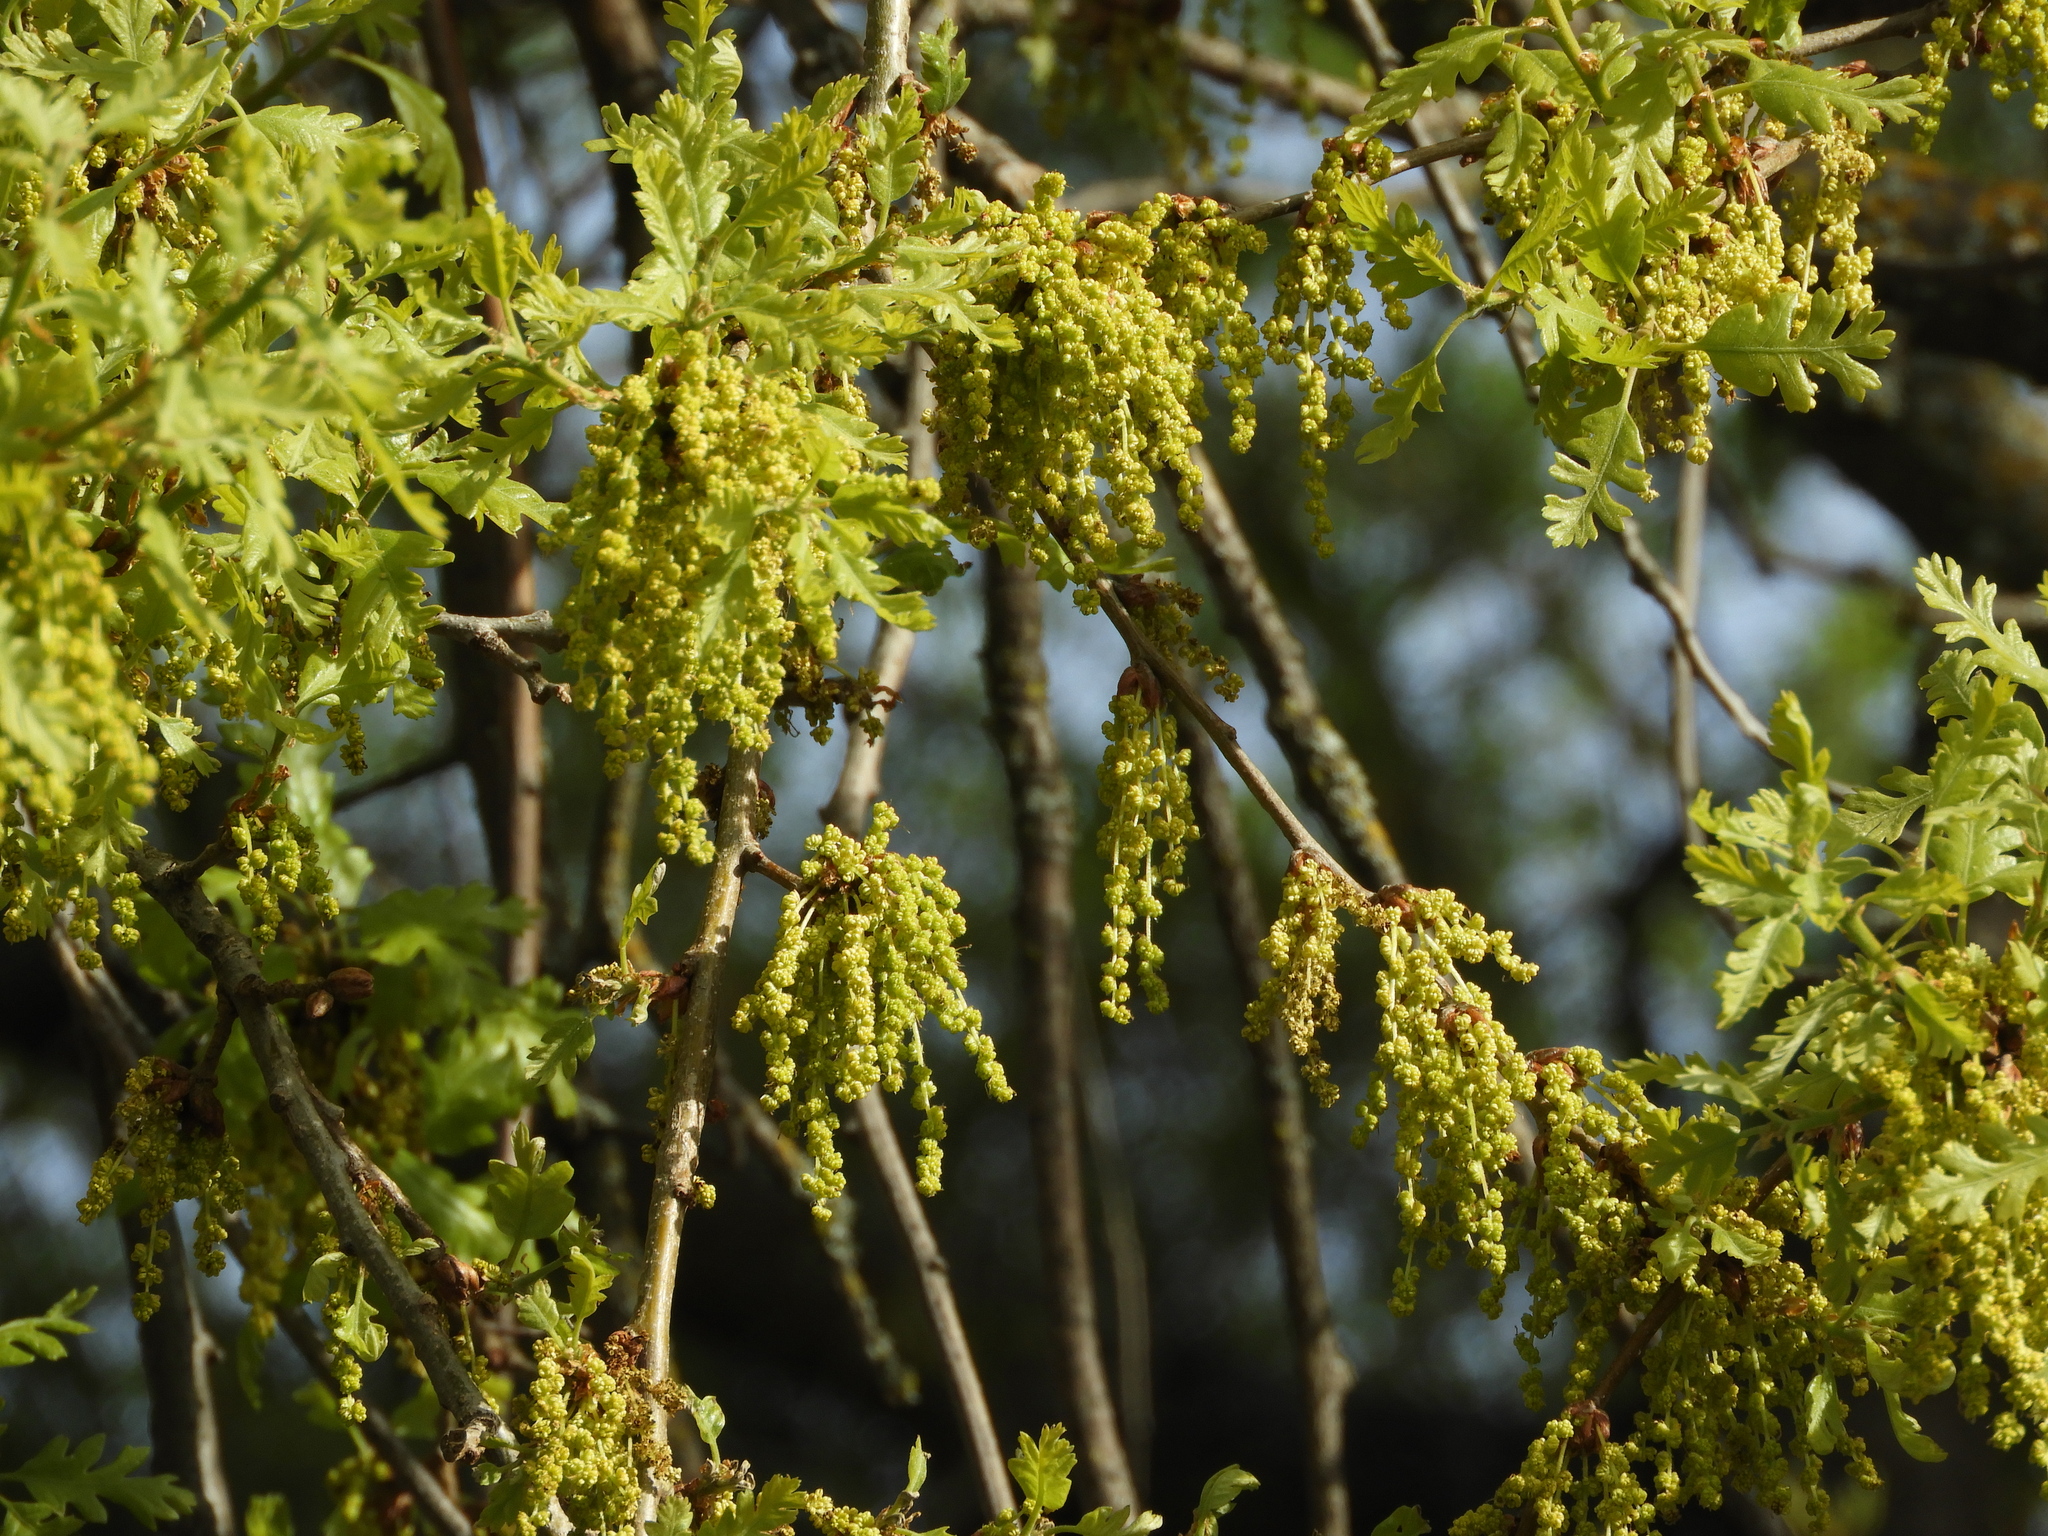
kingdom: Plantae
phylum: Tracheophyta
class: Magnoliopsida
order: Fagales
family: Fagaceae
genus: Quercus
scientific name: Quercus lobata
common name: Valley oak
